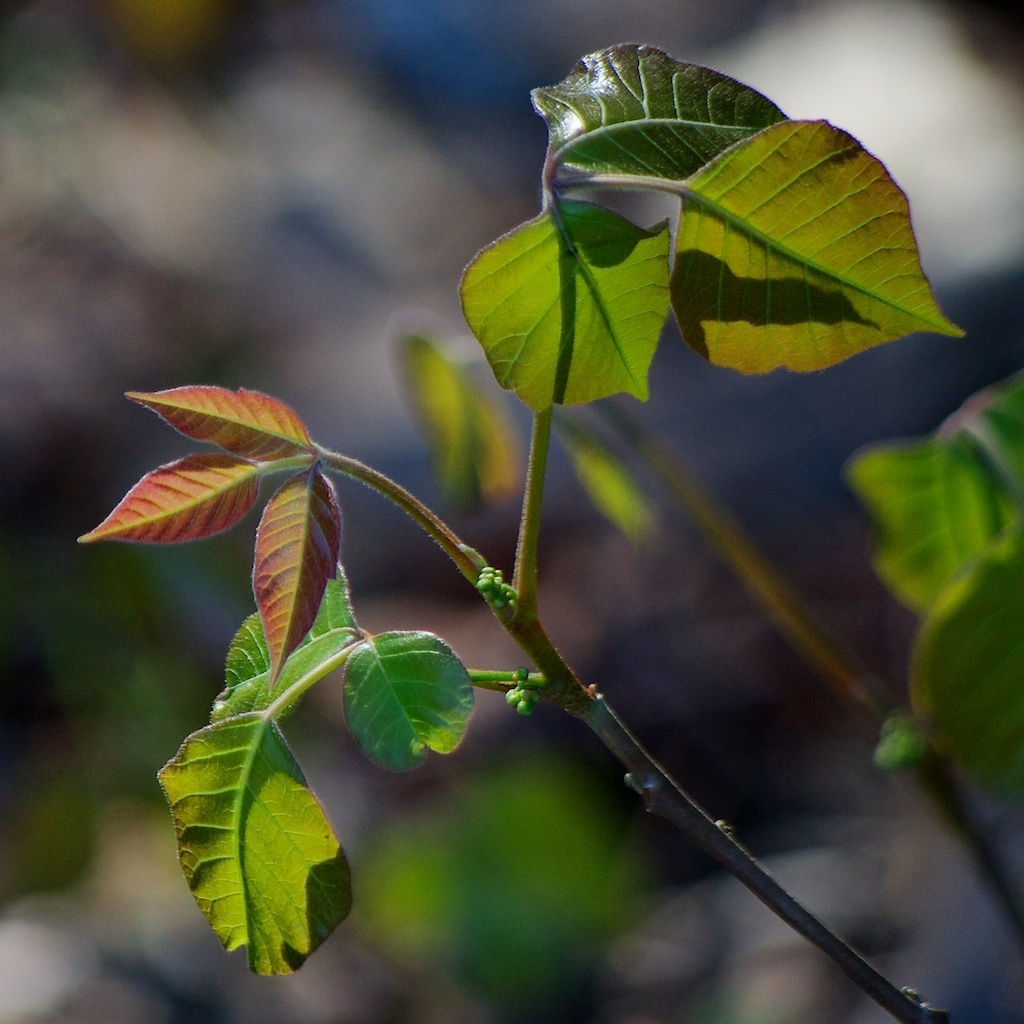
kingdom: Plantae
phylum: Tracheophyta
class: Magnoliopsida
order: Sapindales
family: Anacardiaceae
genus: Toxicodendron
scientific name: Toxicodendron radicans
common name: Poison ivy
